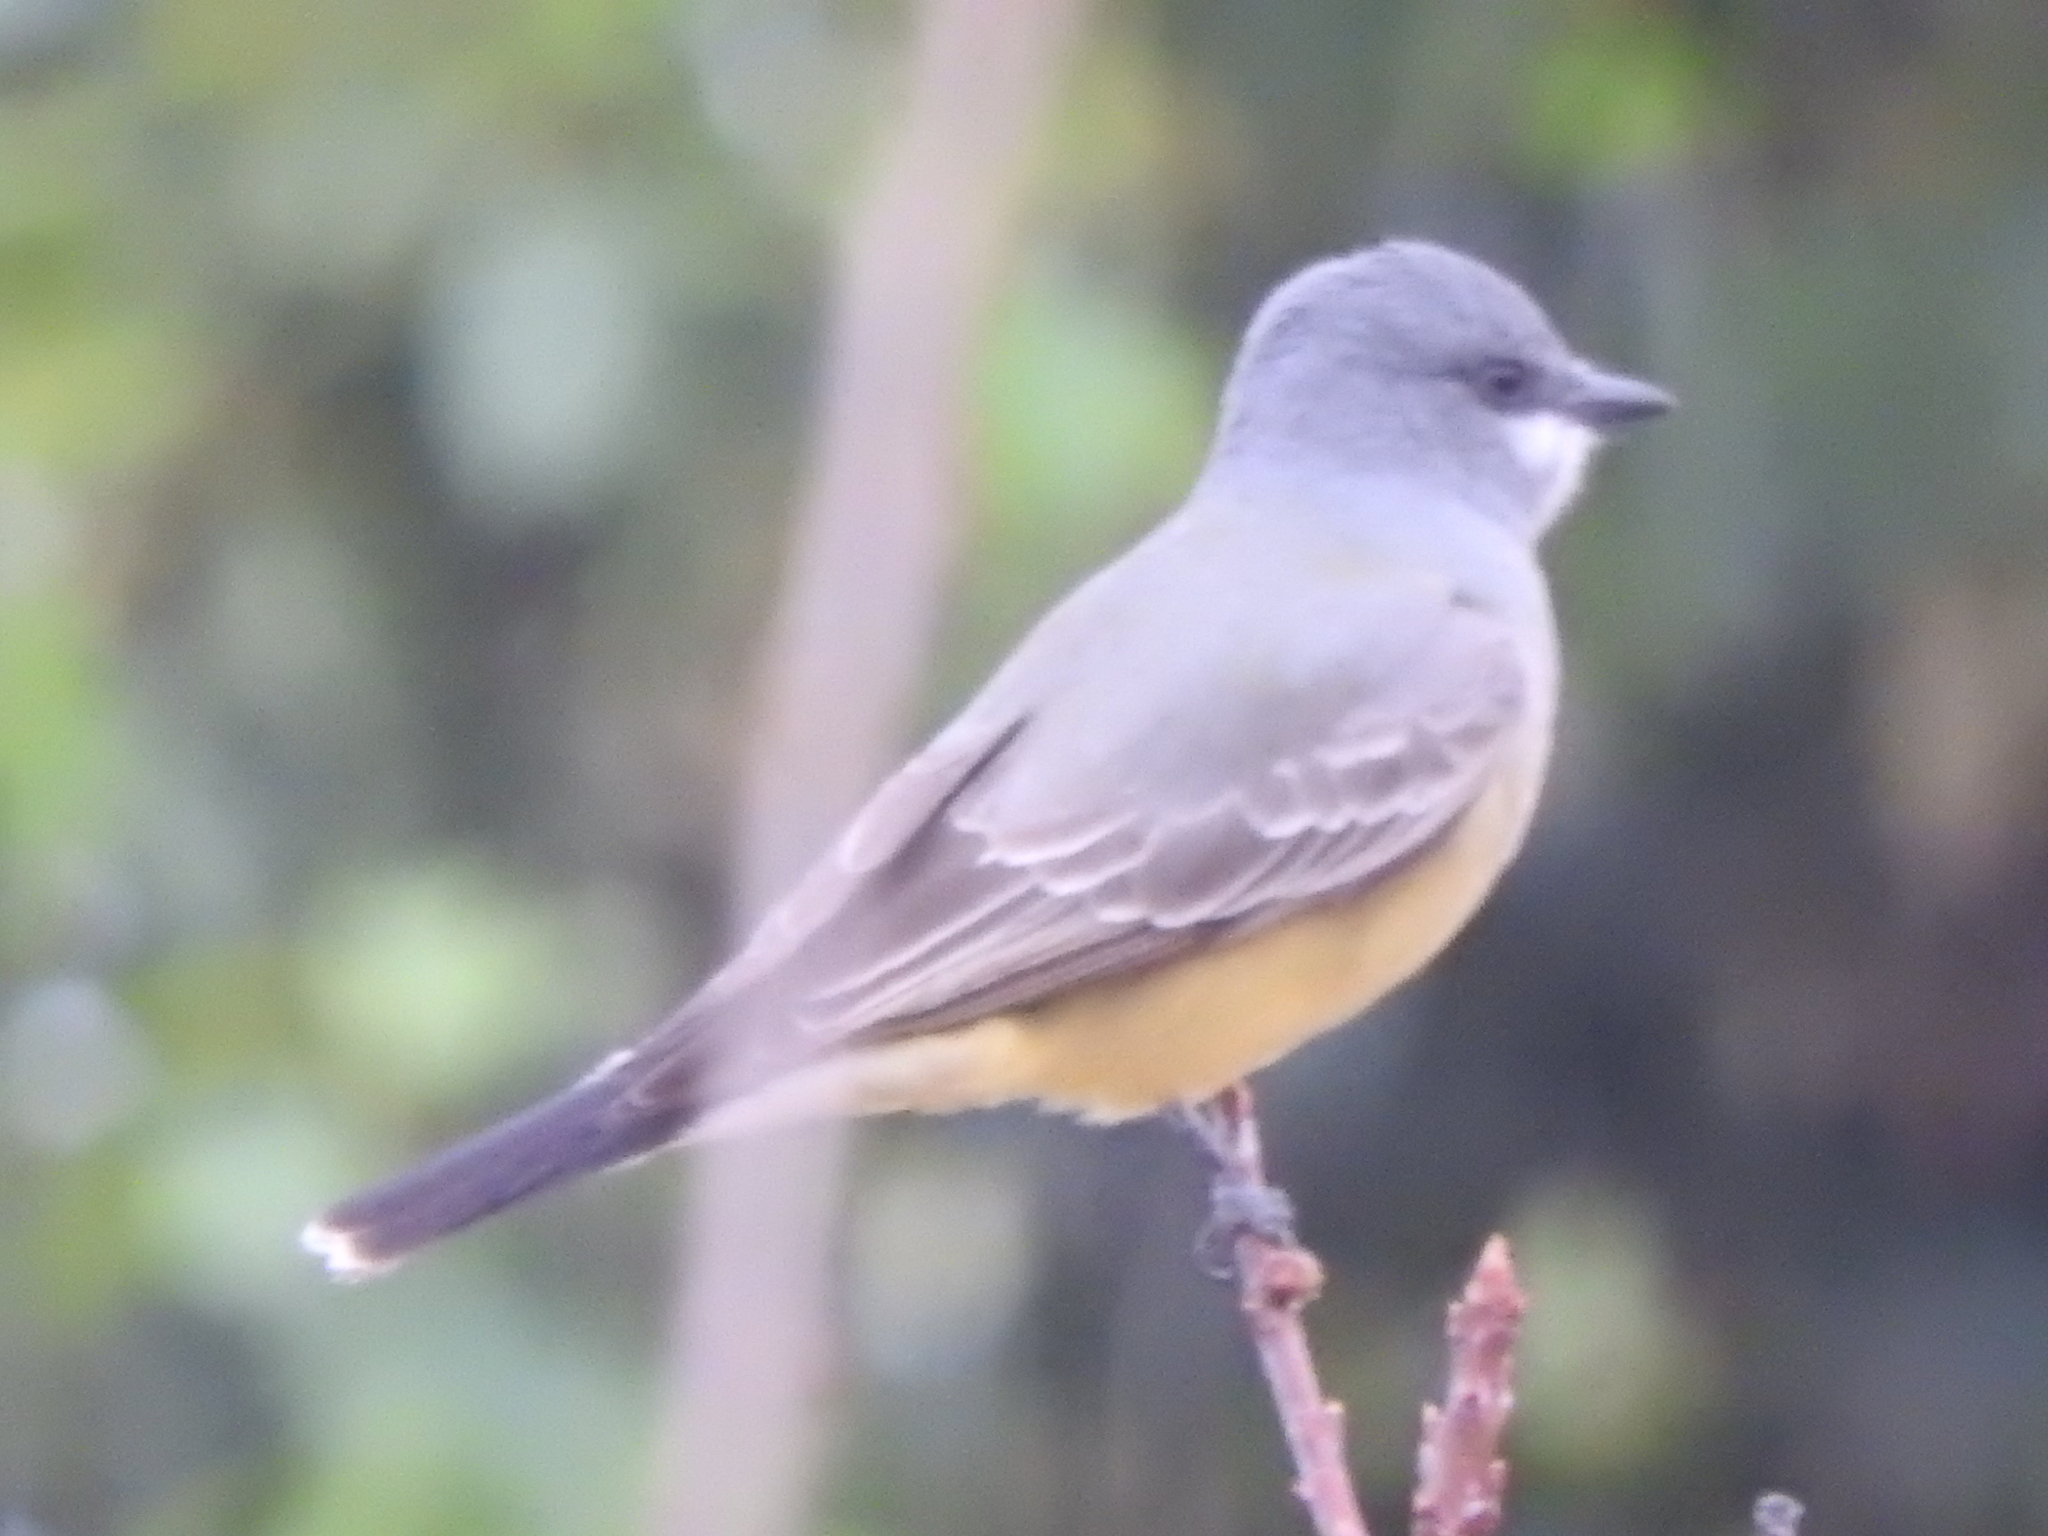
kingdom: Animalia
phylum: Chordata
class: Aves
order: Passeriformes
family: Tyrannidae
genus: Tyrannus
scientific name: Tyrannus vociferans
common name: Cassin's kingbird
